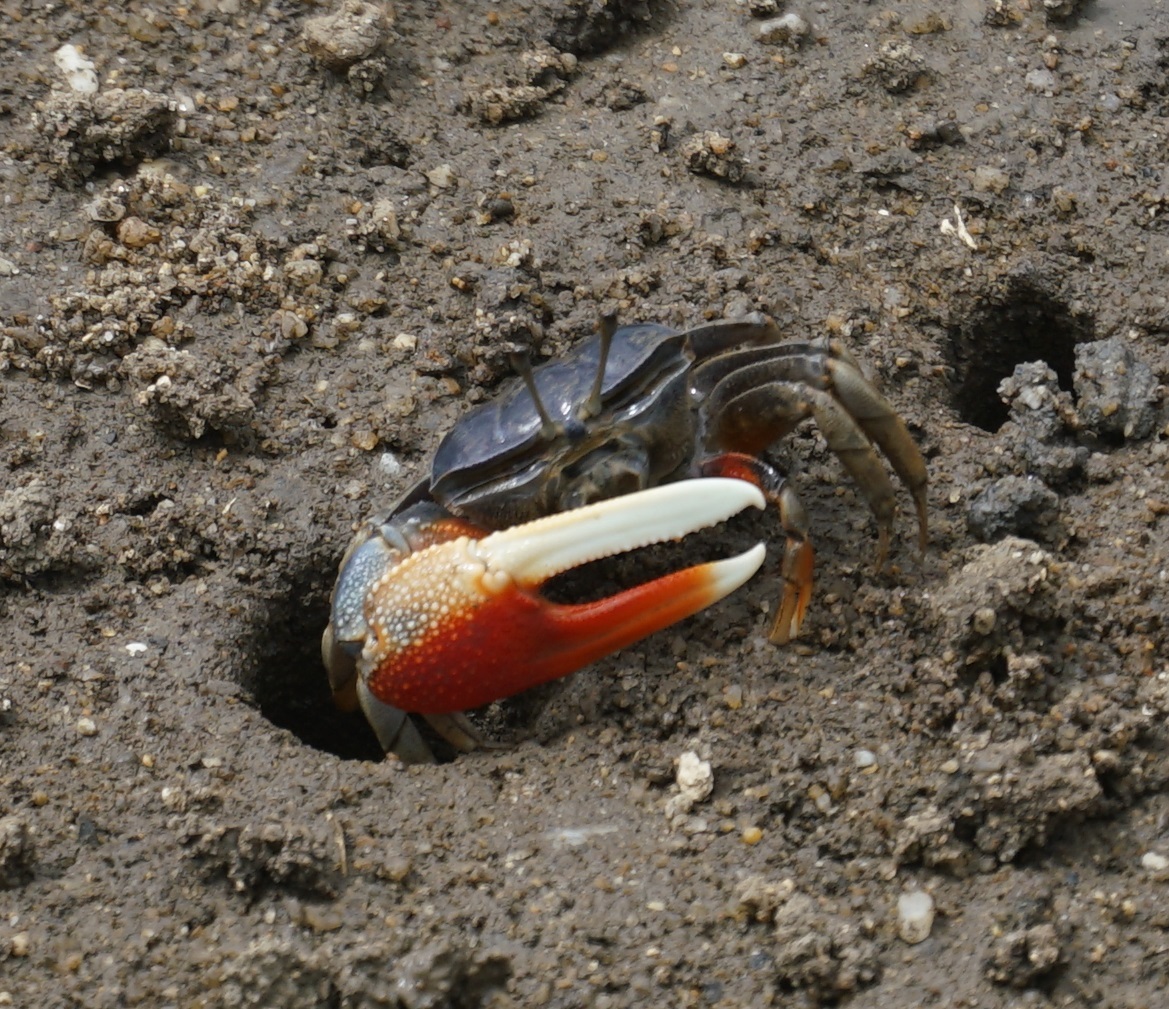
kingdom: Animalia
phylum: Arthropoda
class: Malacostraca
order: Decapoda
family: Ocypodidae
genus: Tubuca
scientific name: Tubuca dussumieri
